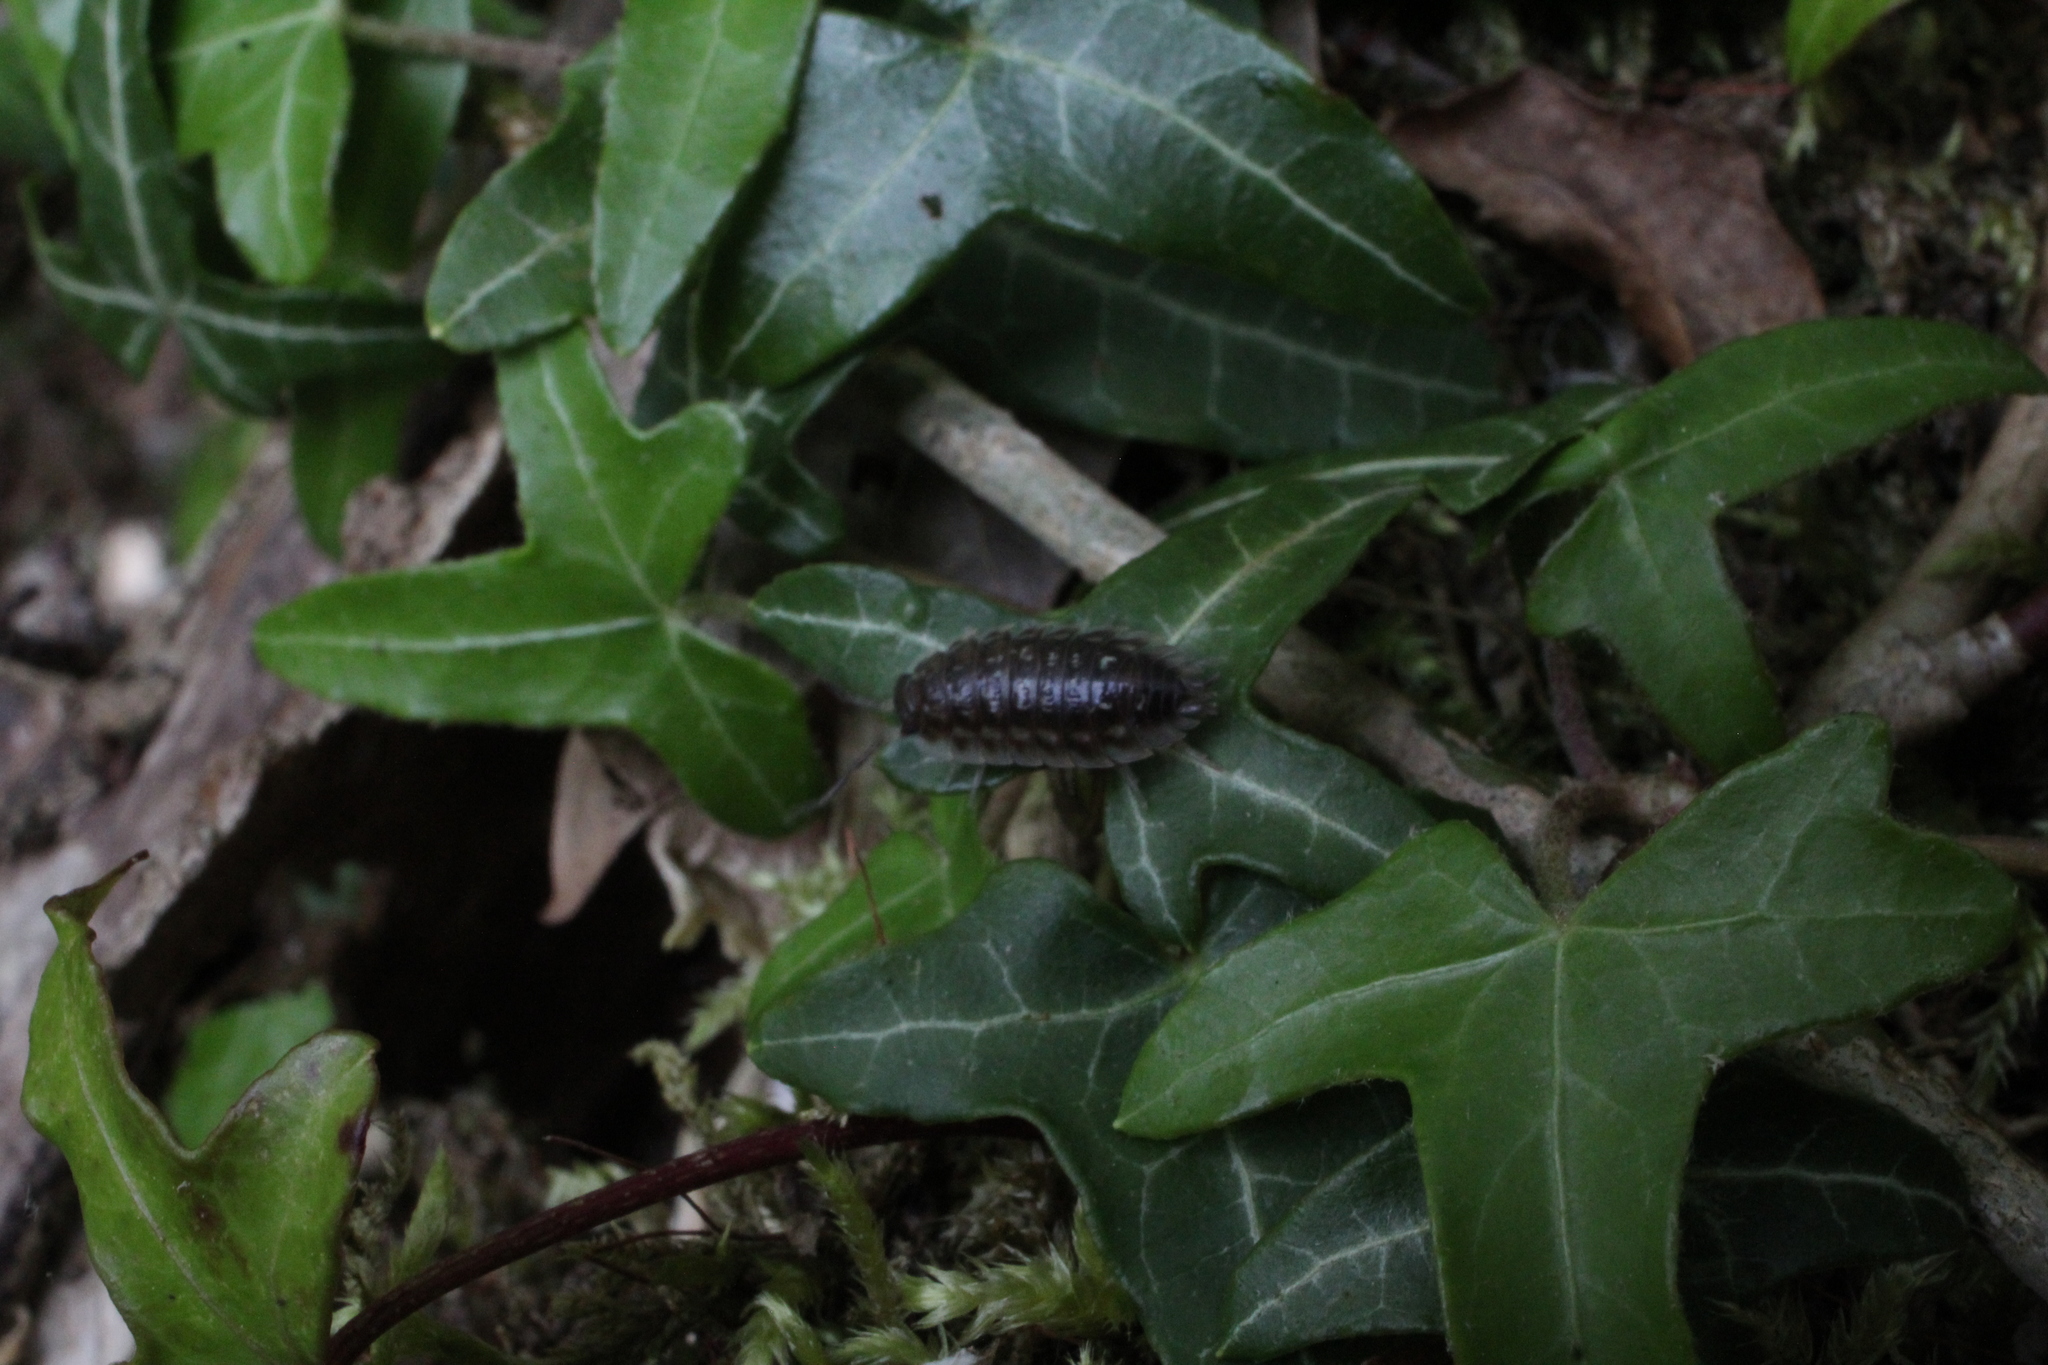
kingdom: Animalia
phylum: Arthropoda
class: Malacostraca
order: Isopoda
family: Oniscidae
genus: Oniscus
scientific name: Oniscus asellus
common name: Common shiny woodlouse
